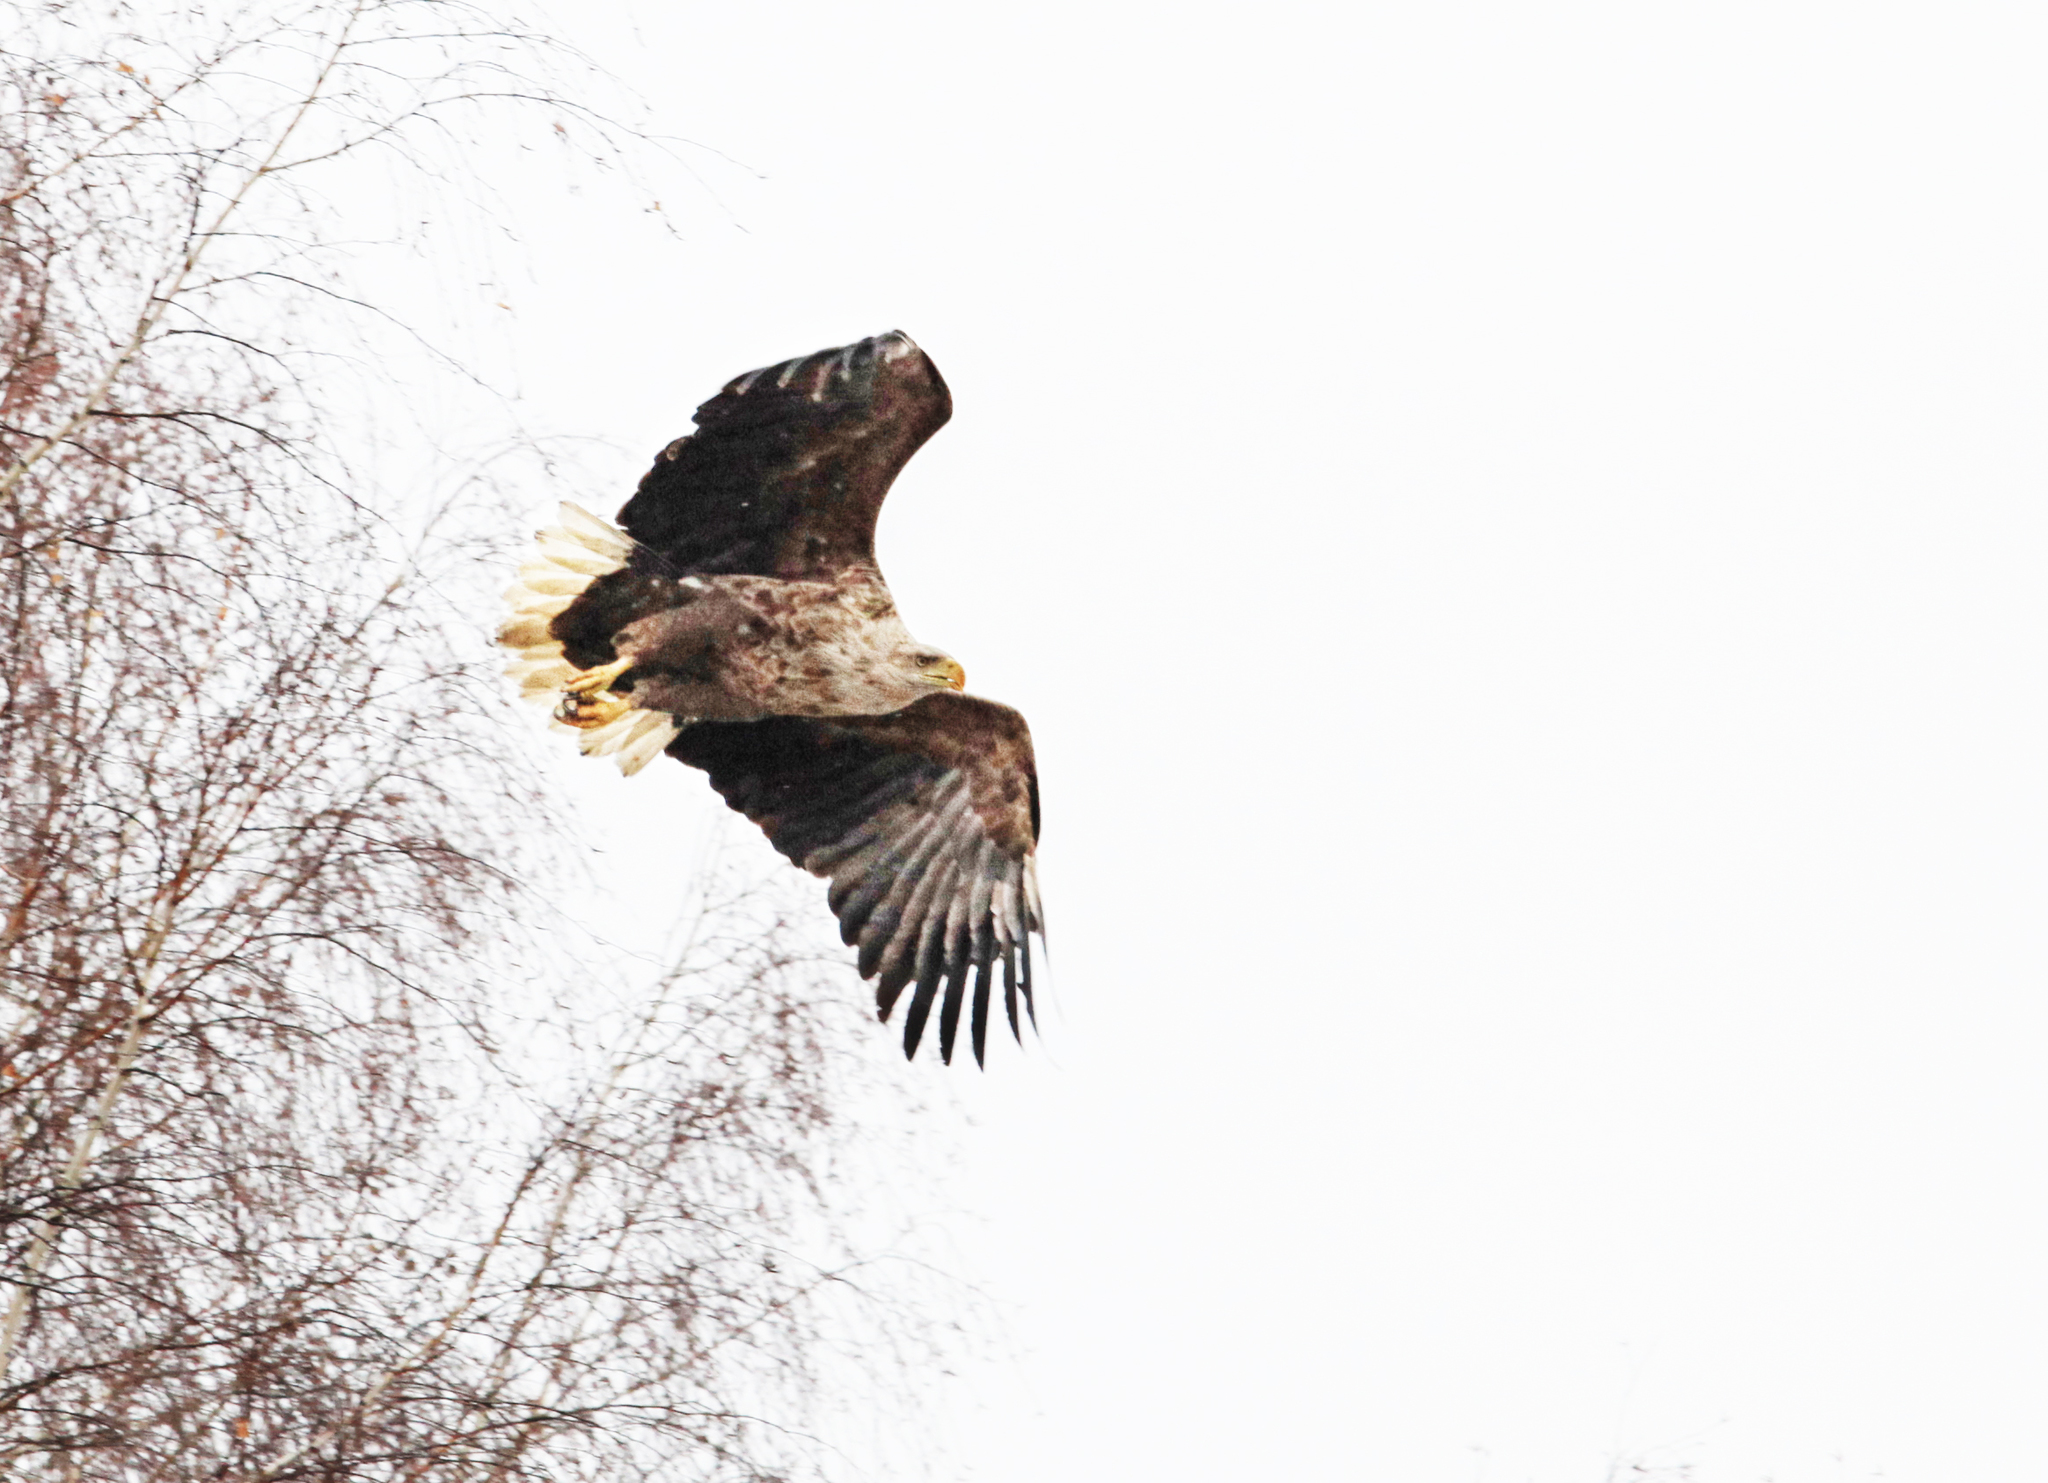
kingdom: Animalia
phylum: Chordata
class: Aves
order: Accipitriformes
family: Accipitridae
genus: Haliaeetus
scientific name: Haliaeetus albicilla
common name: White-tailed eagle
